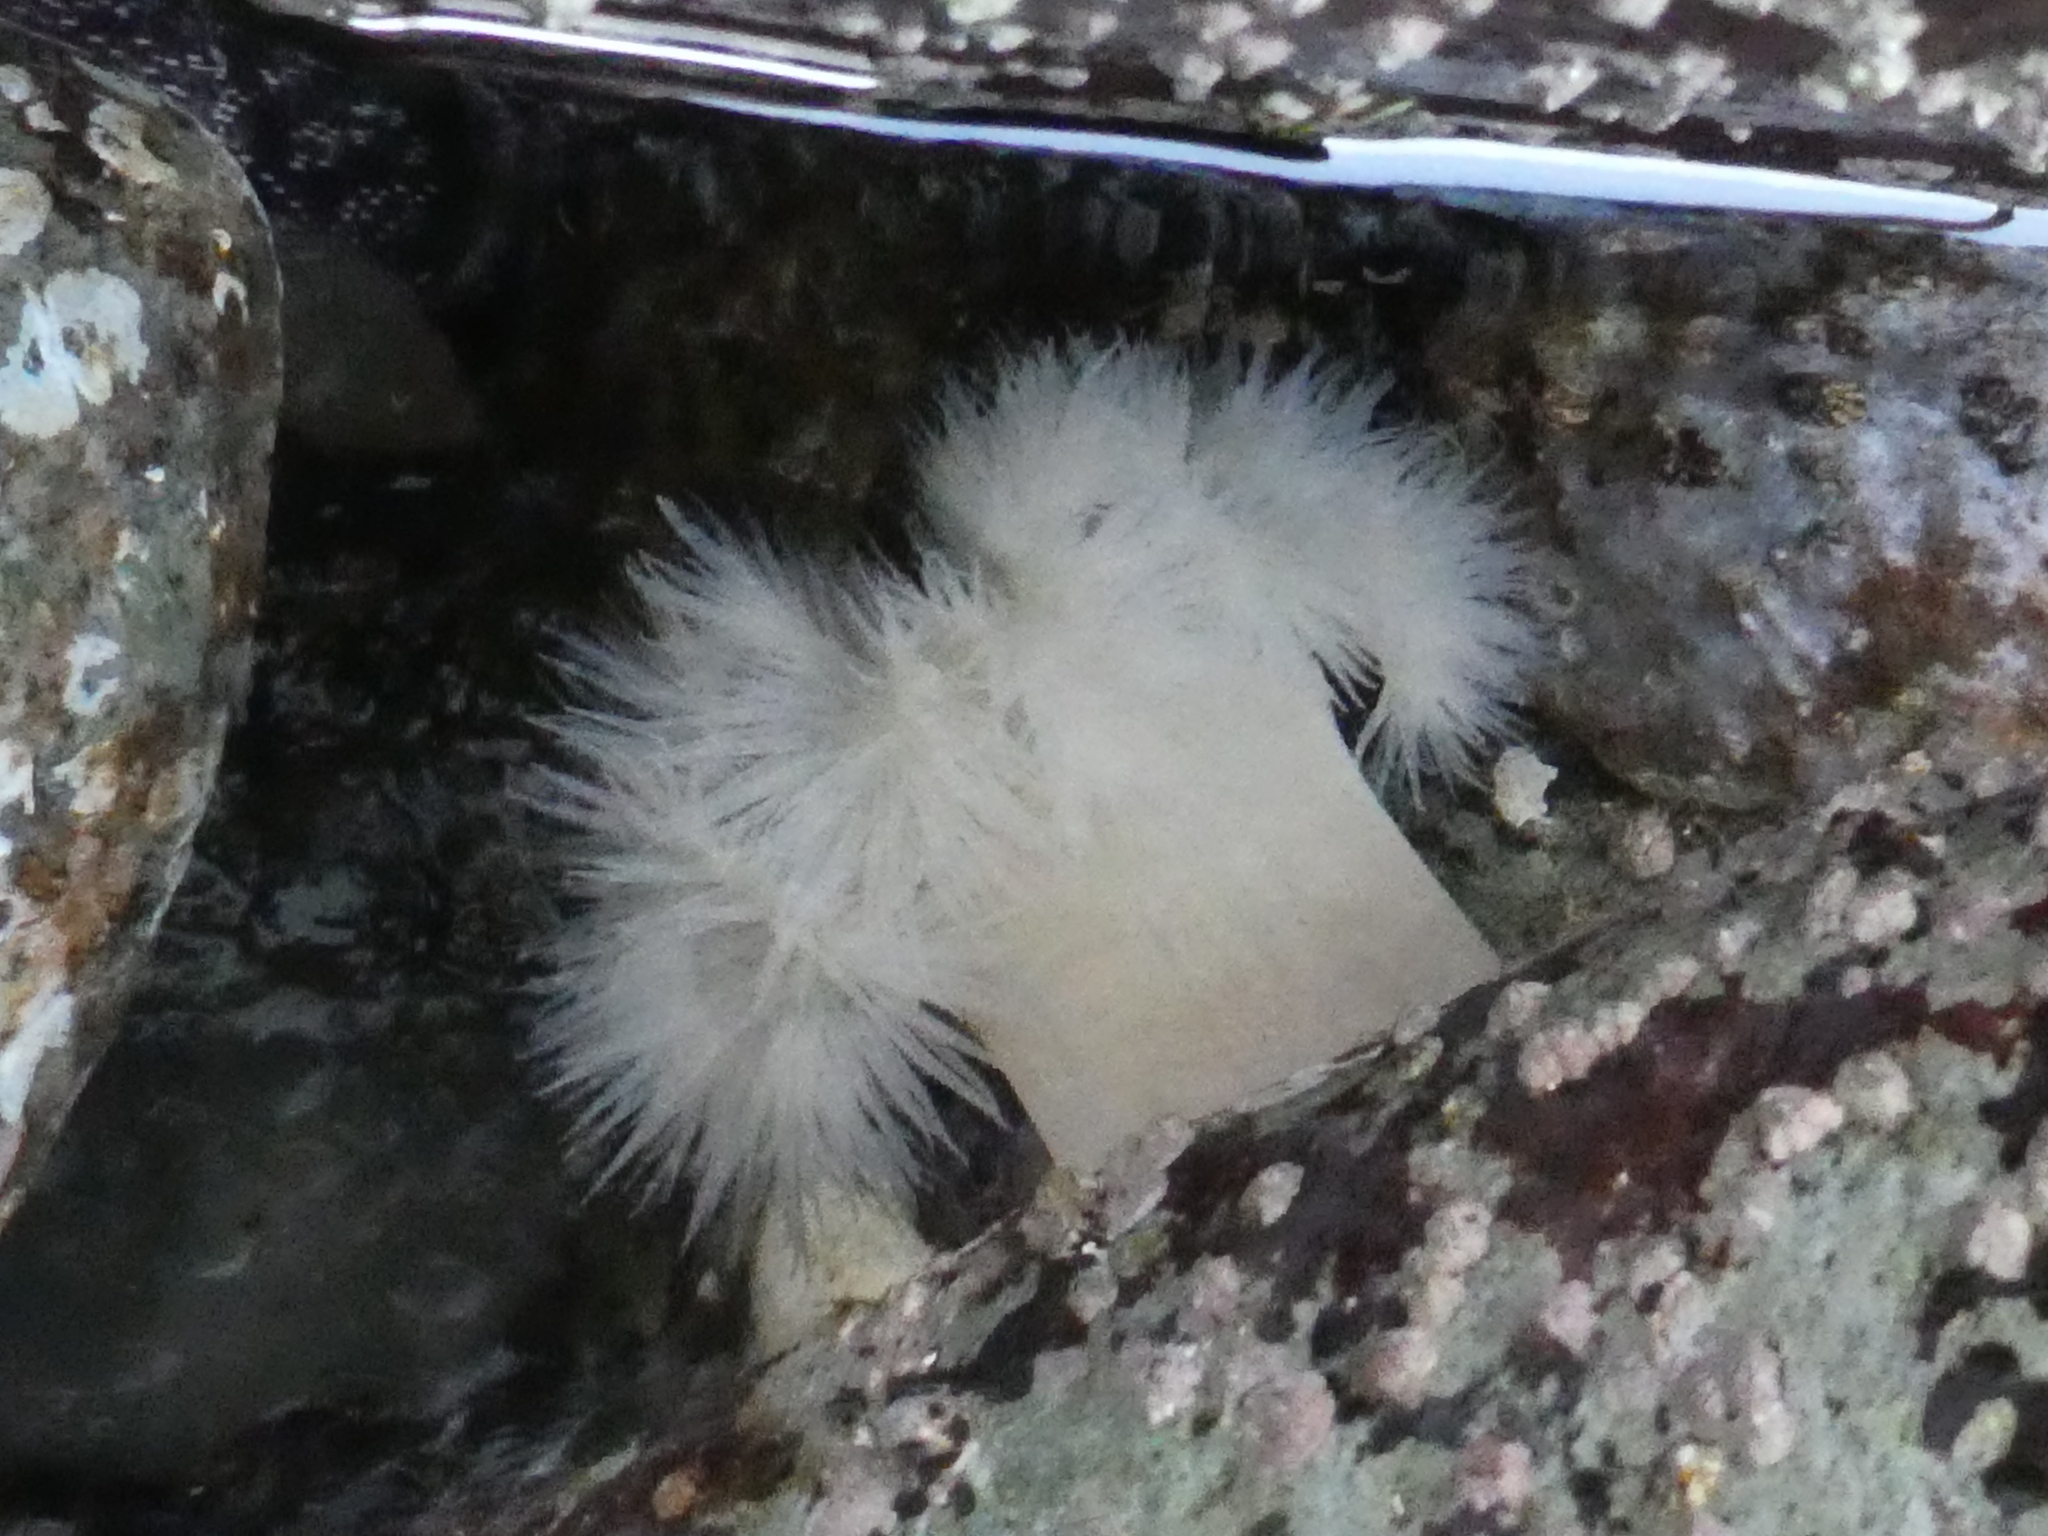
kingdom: Animalia
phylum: Cnidaria
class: Anthozoa
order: Actiniaria
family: Metridiidae
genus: Metridium
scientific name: Metridium senile
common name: Clonal plumose anemone
